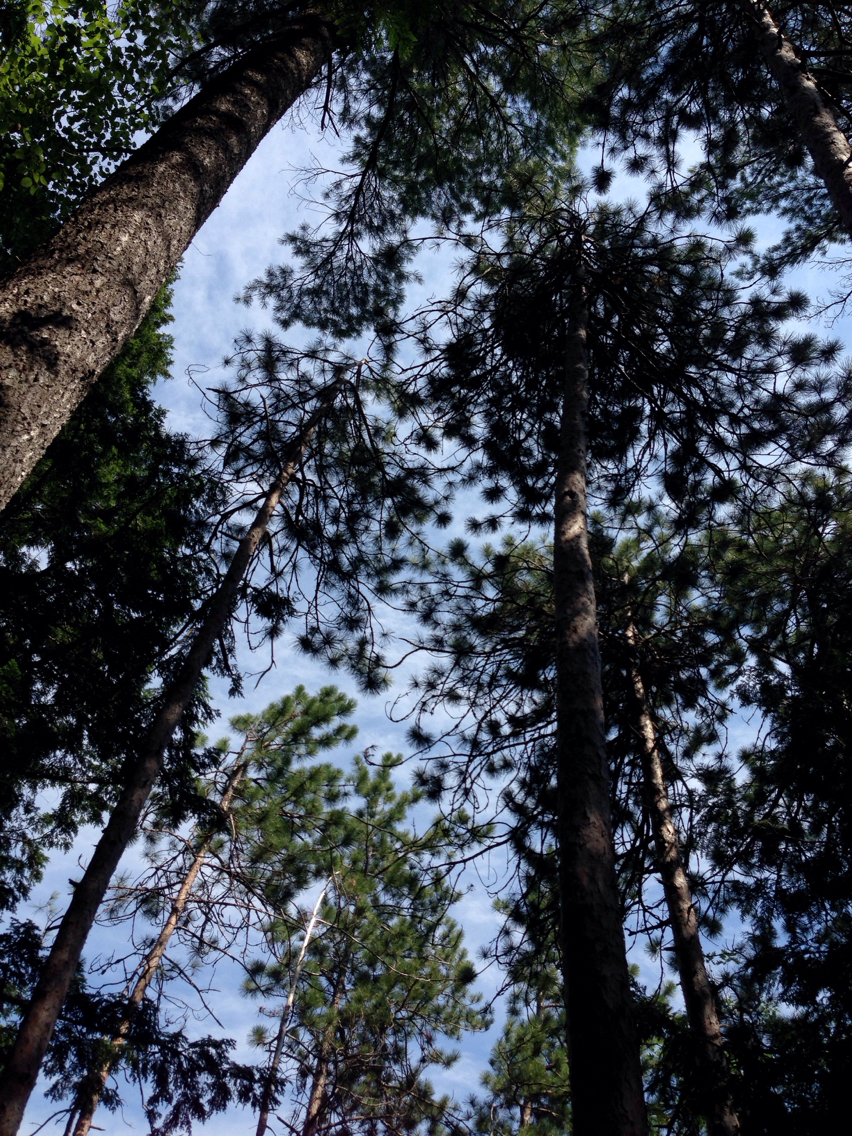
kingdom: Plantae
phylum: Tracheophyta
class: Pinopsida
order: Pinales
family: Pinaceae
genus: Pinus
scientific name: Pinus resinosa
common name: Norway pine
